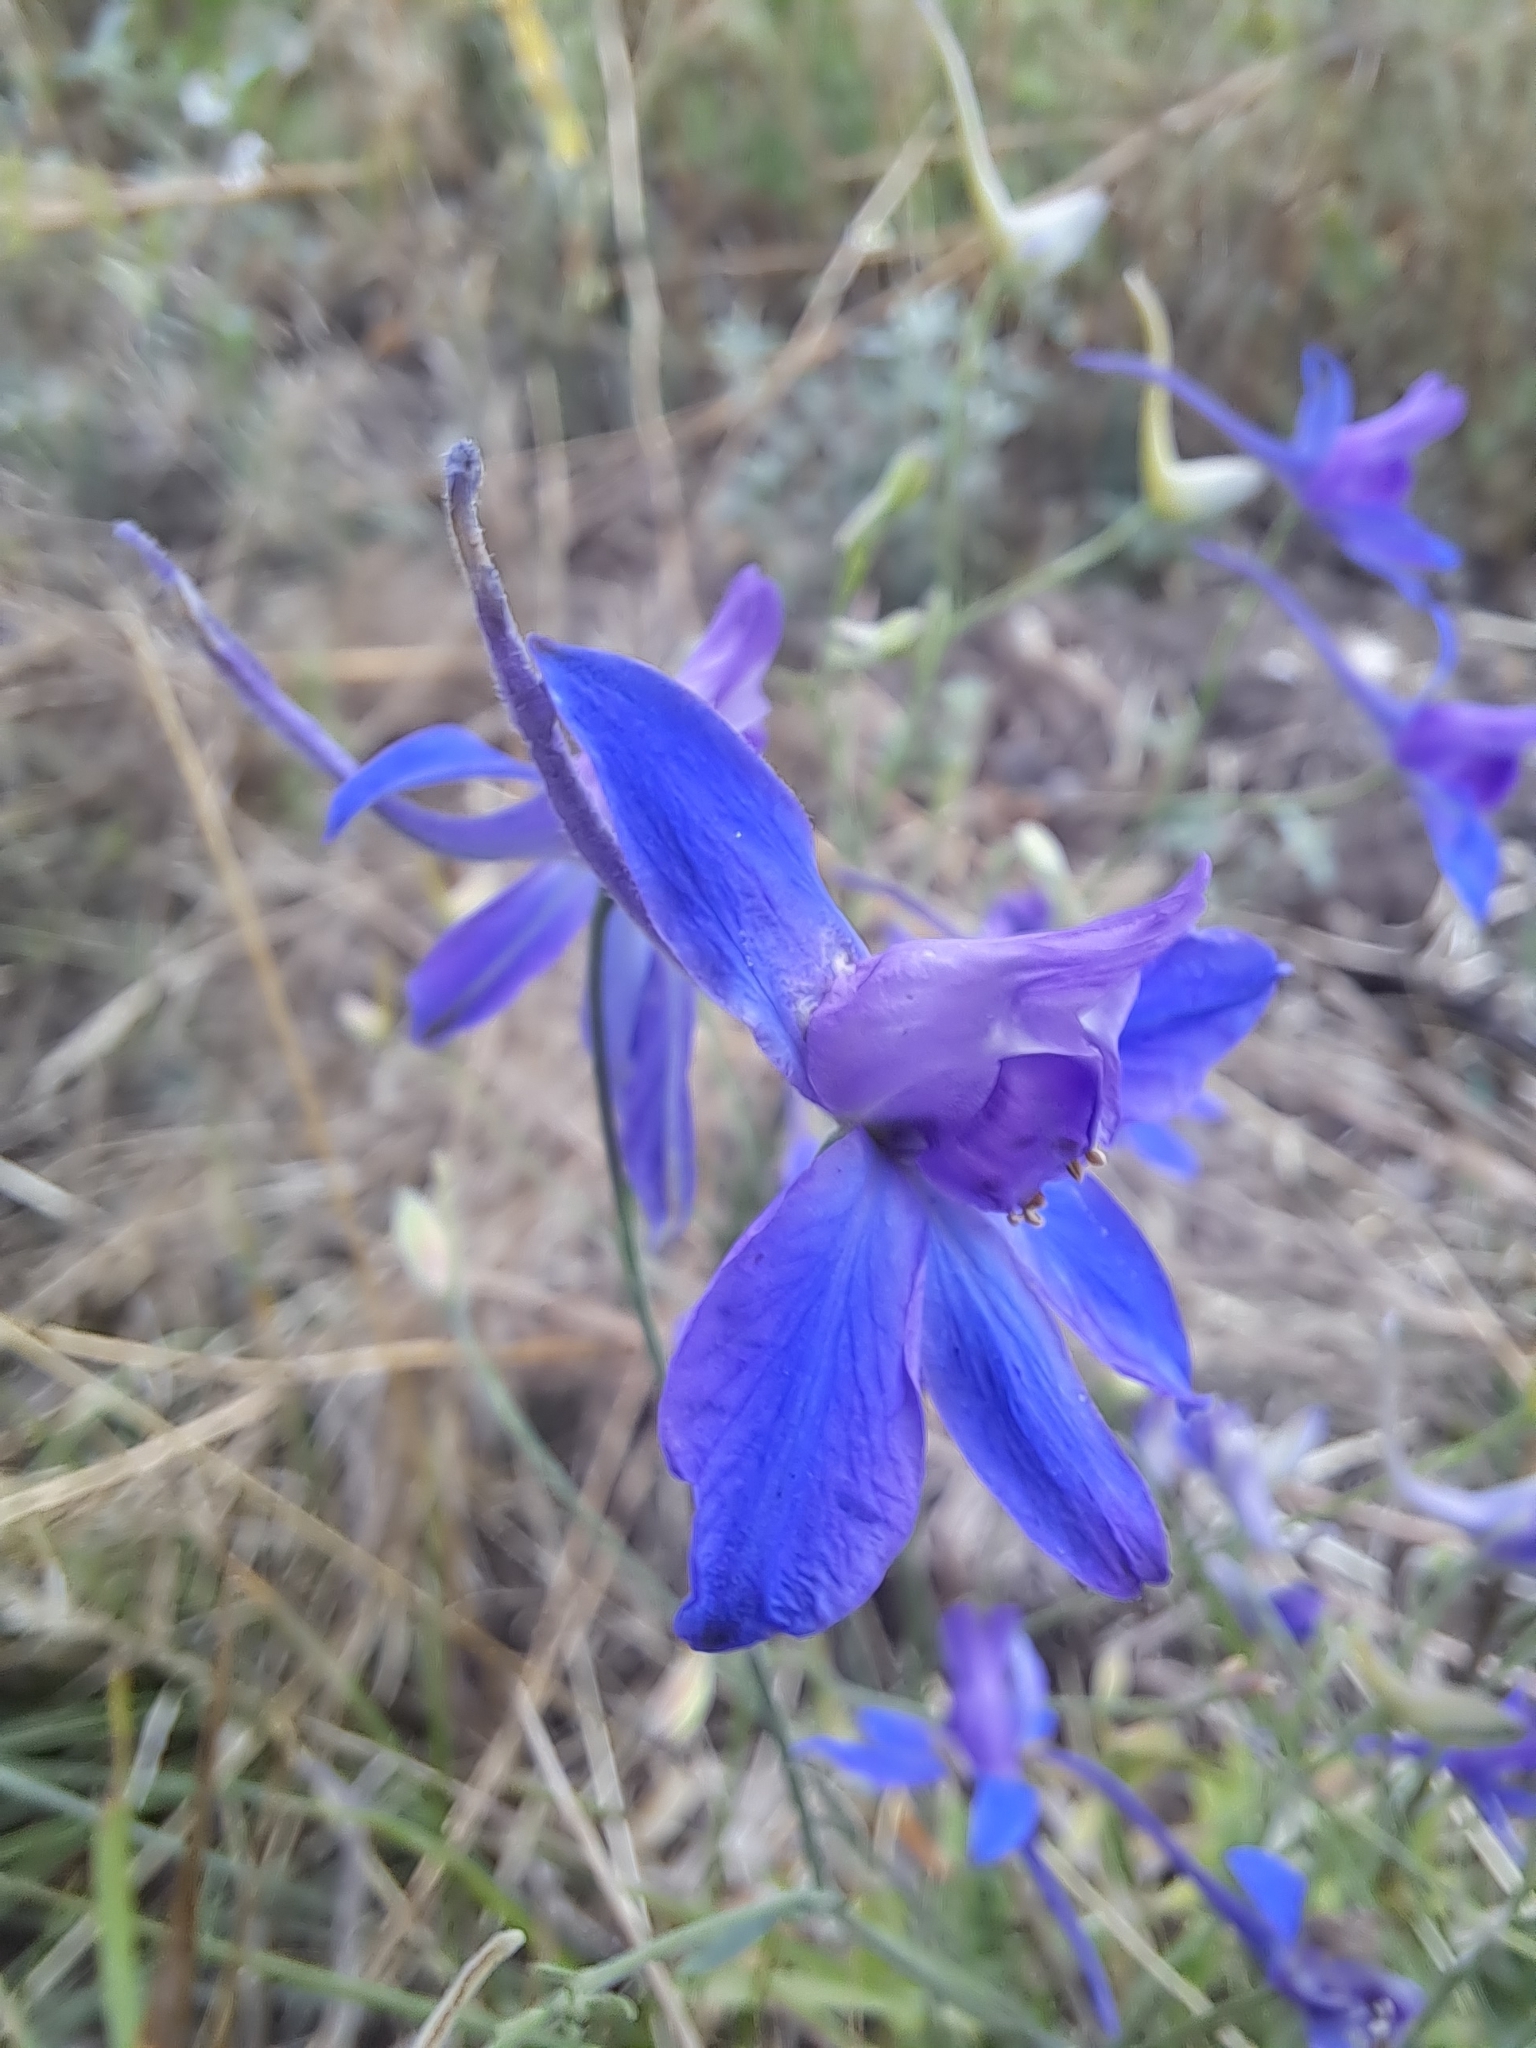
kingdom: Plantae
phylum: Tracheophyta
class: Magnoliopsida
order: Ranunculales
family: Ranunculaceae
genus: Delphinium
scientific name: Delphinium consolida
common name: Branching larkspur
